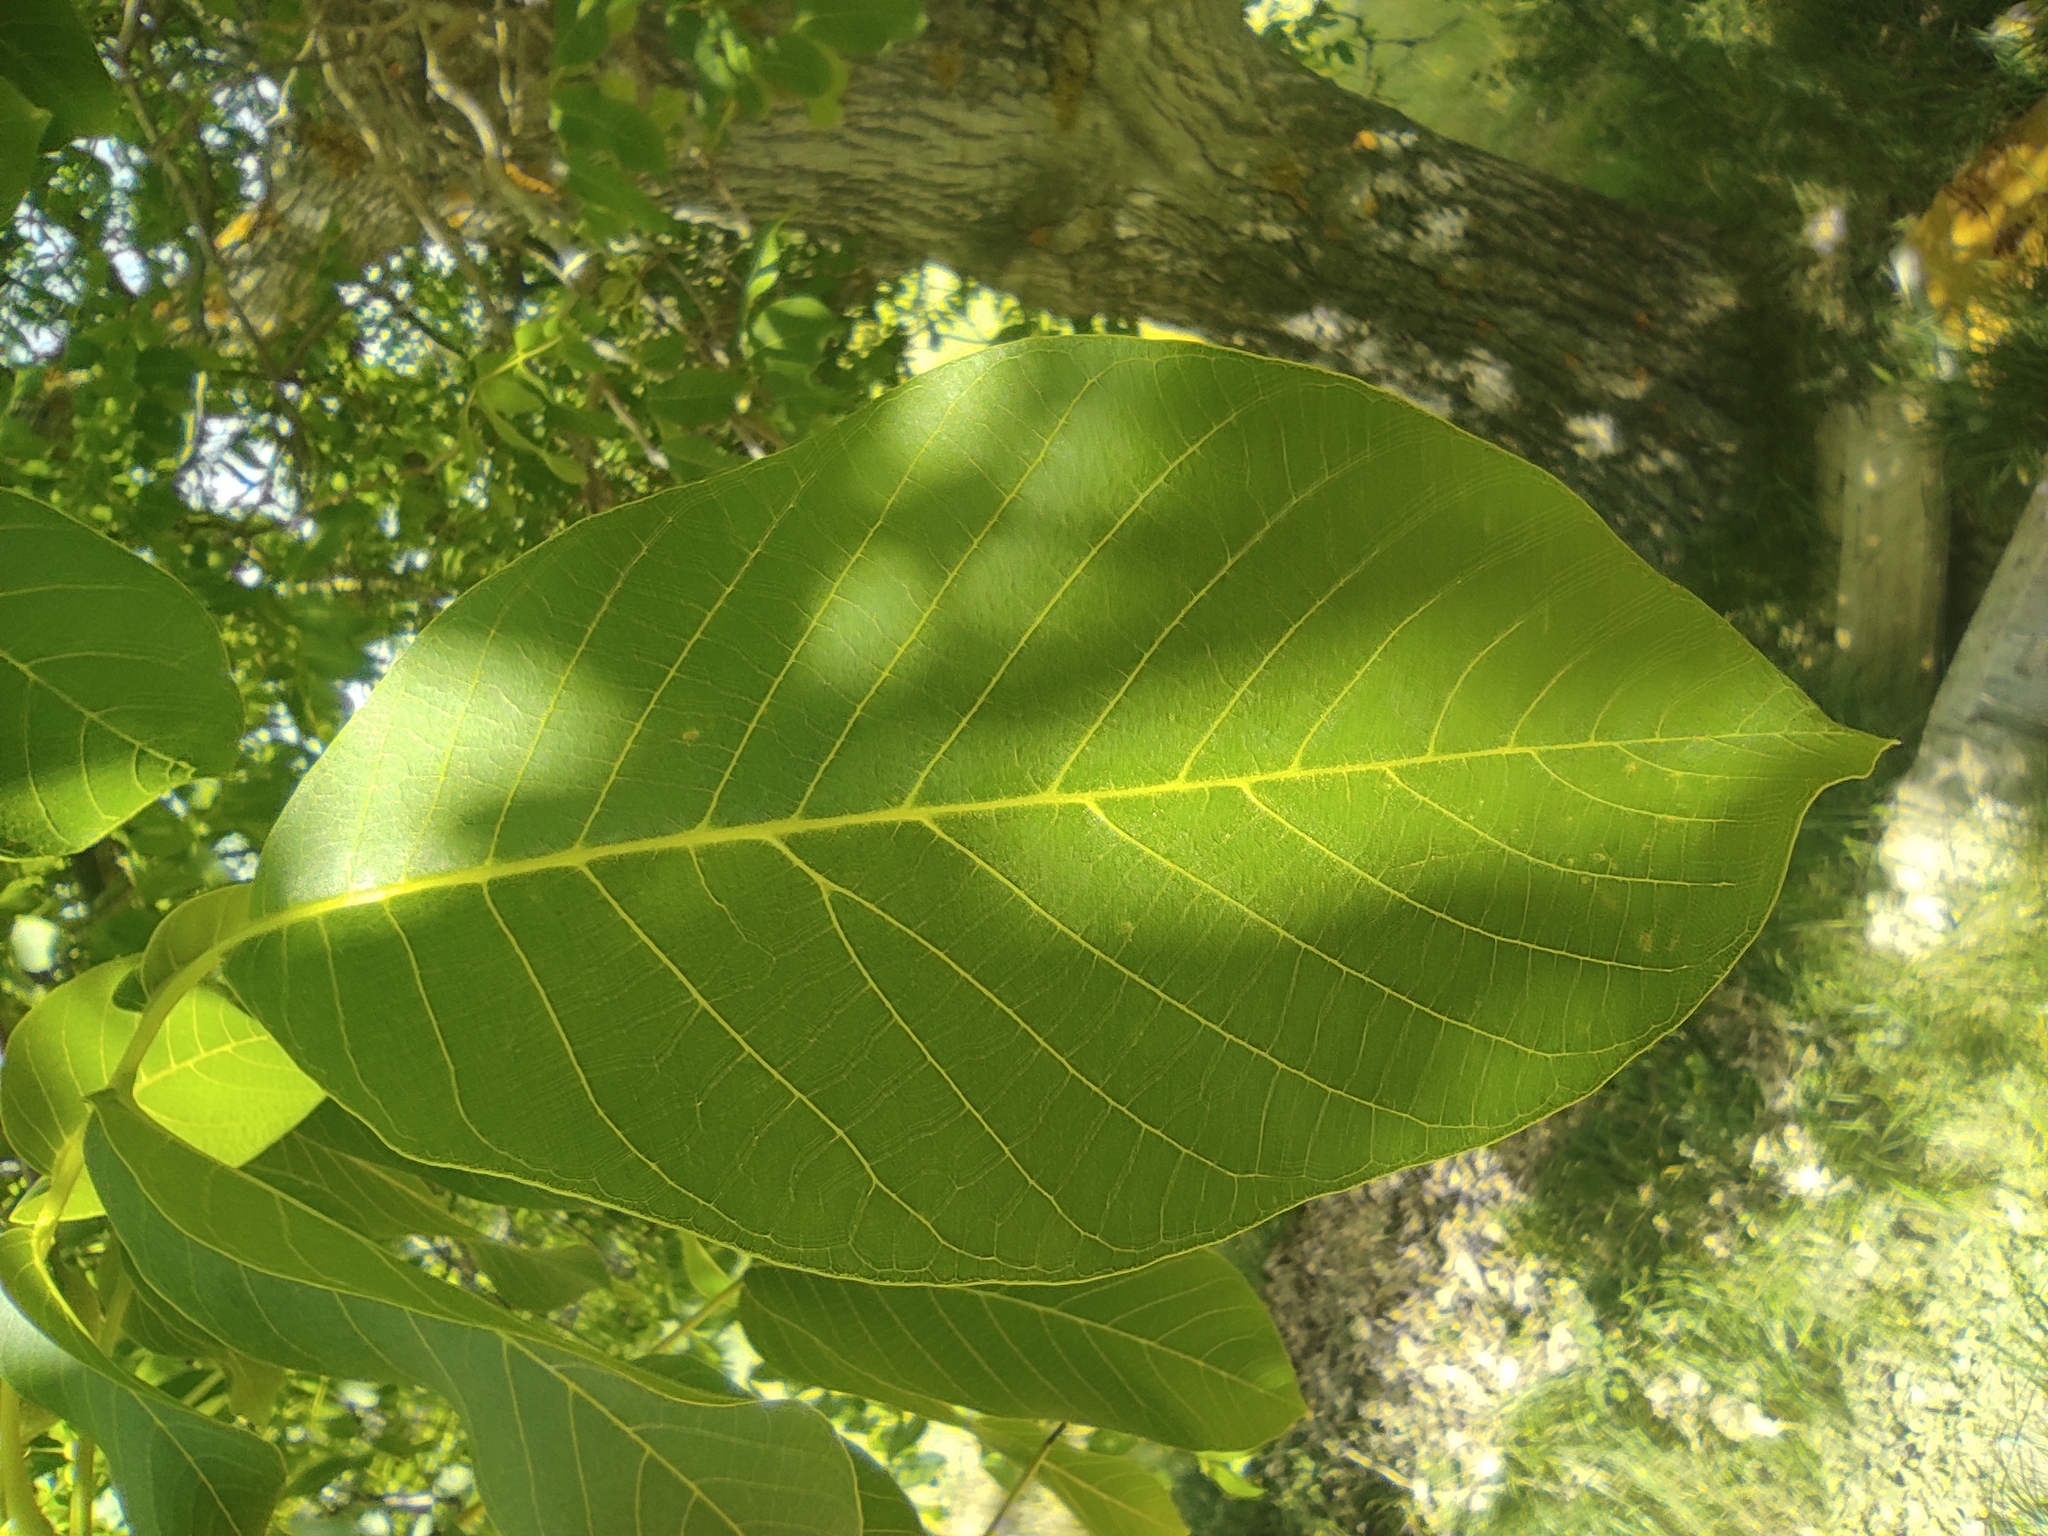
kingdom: Plantae
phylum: Tracheophyta
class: Magnoliopsida
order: Fagales
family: Juglandaceae
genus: Juglans
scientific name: Juglans regia
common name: Walnut
